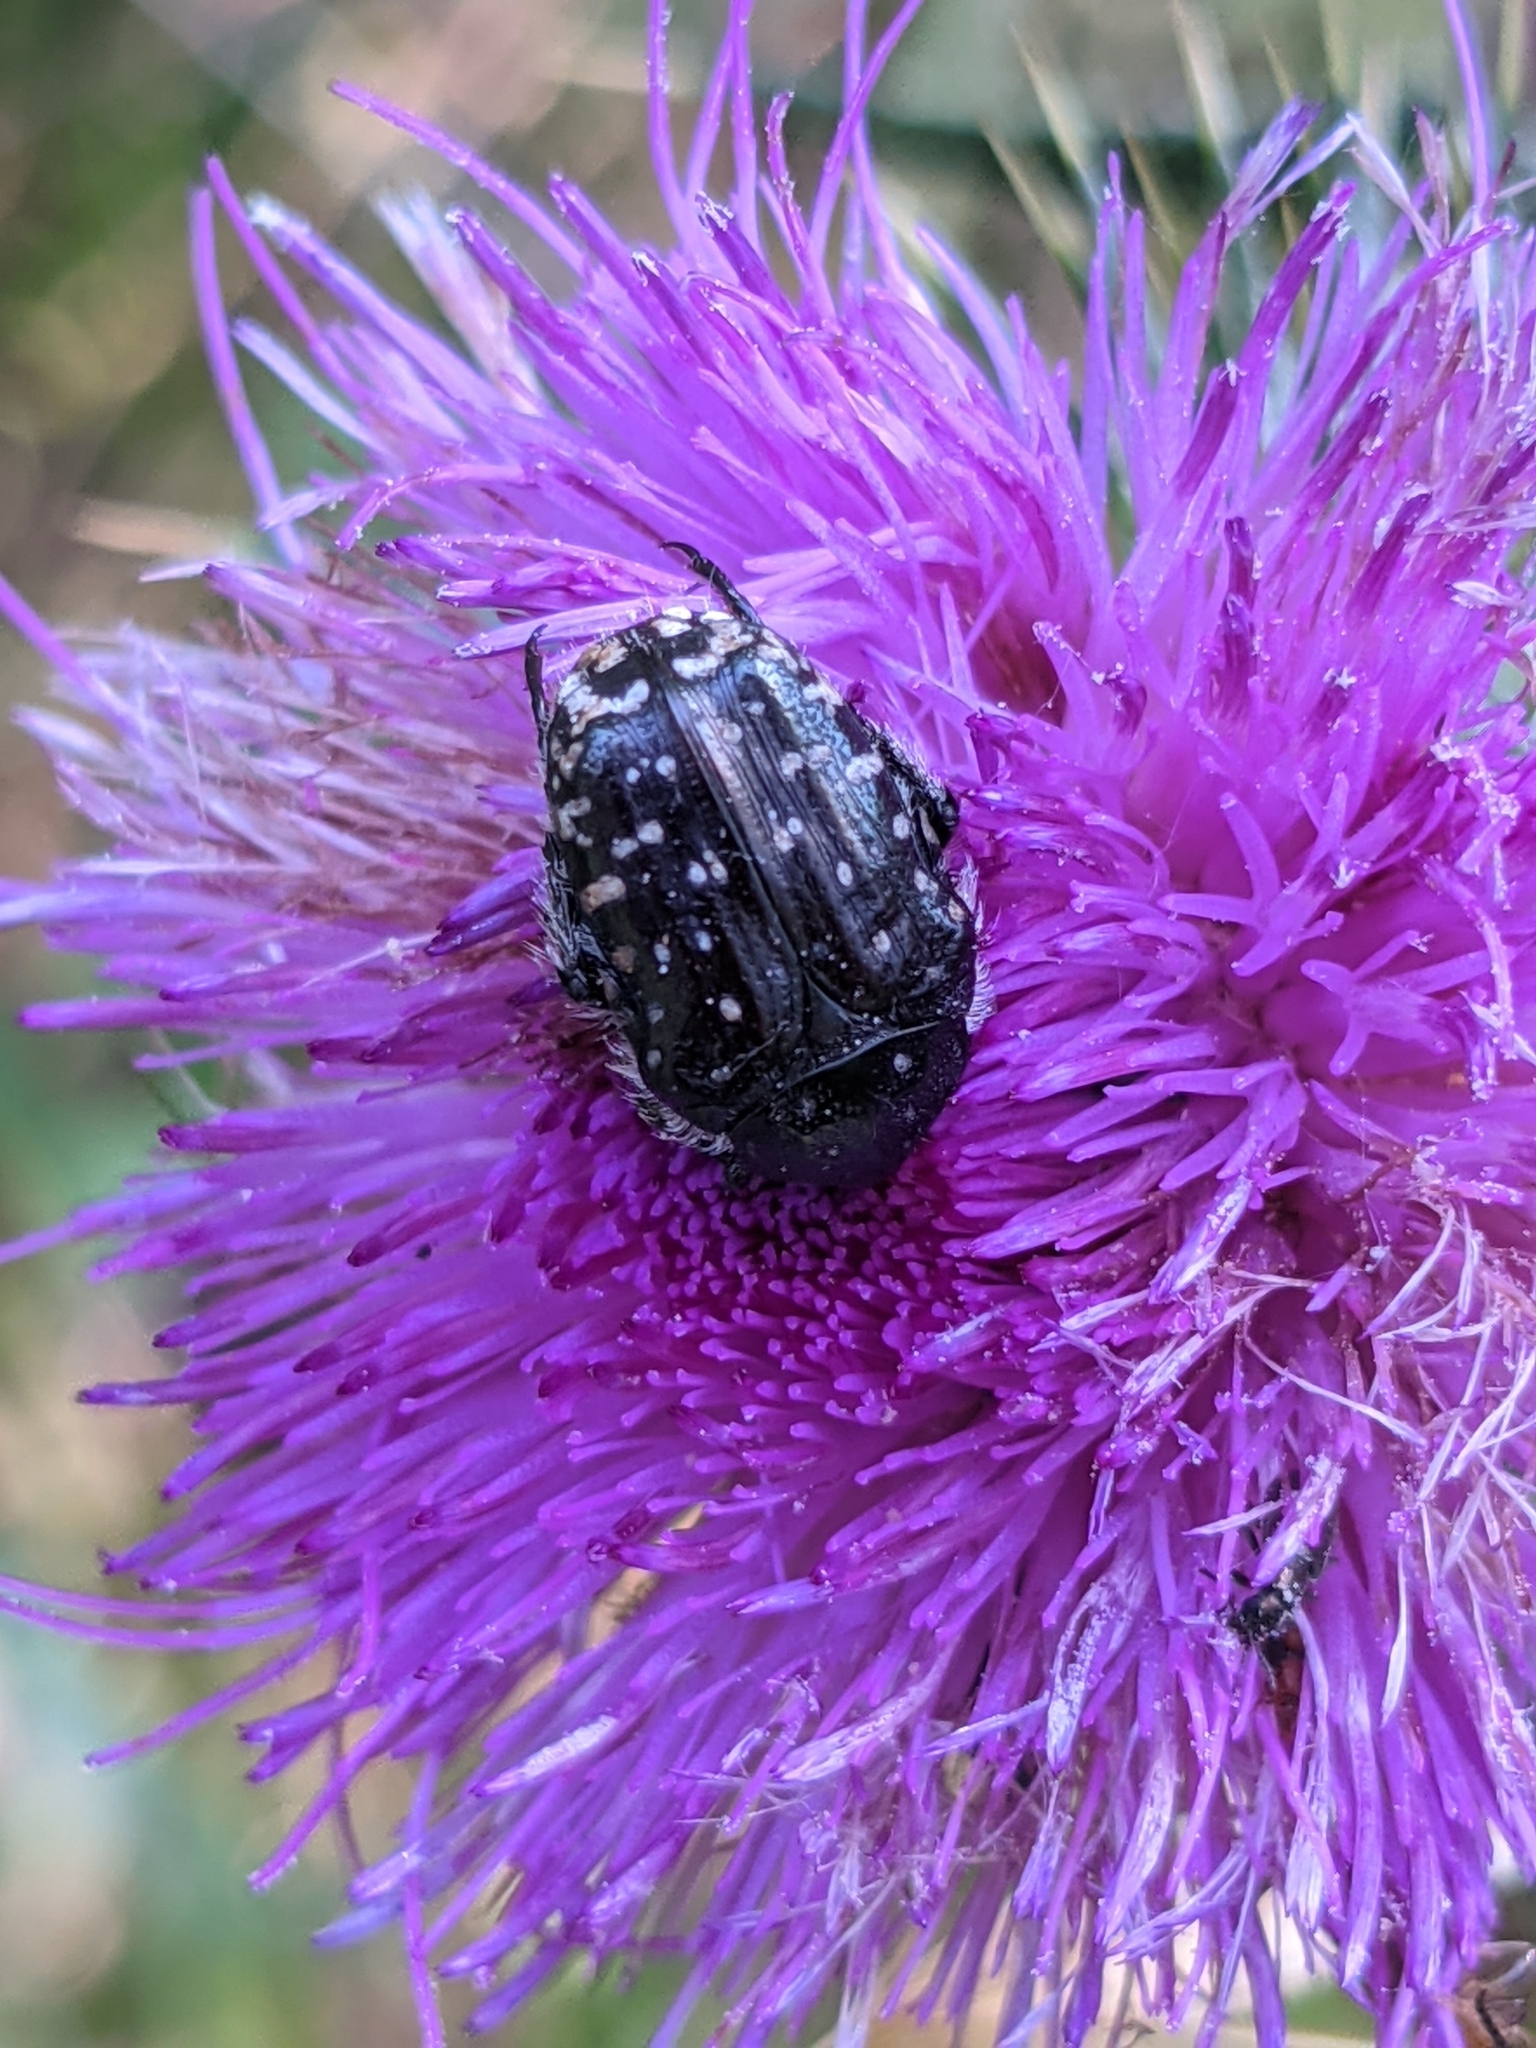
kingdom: Animalia
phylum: Arthropoda
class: Insecta
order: Coleoptera
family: Scarabaeidae
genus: Oxythyrea
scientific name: Oxythyrea funesta
